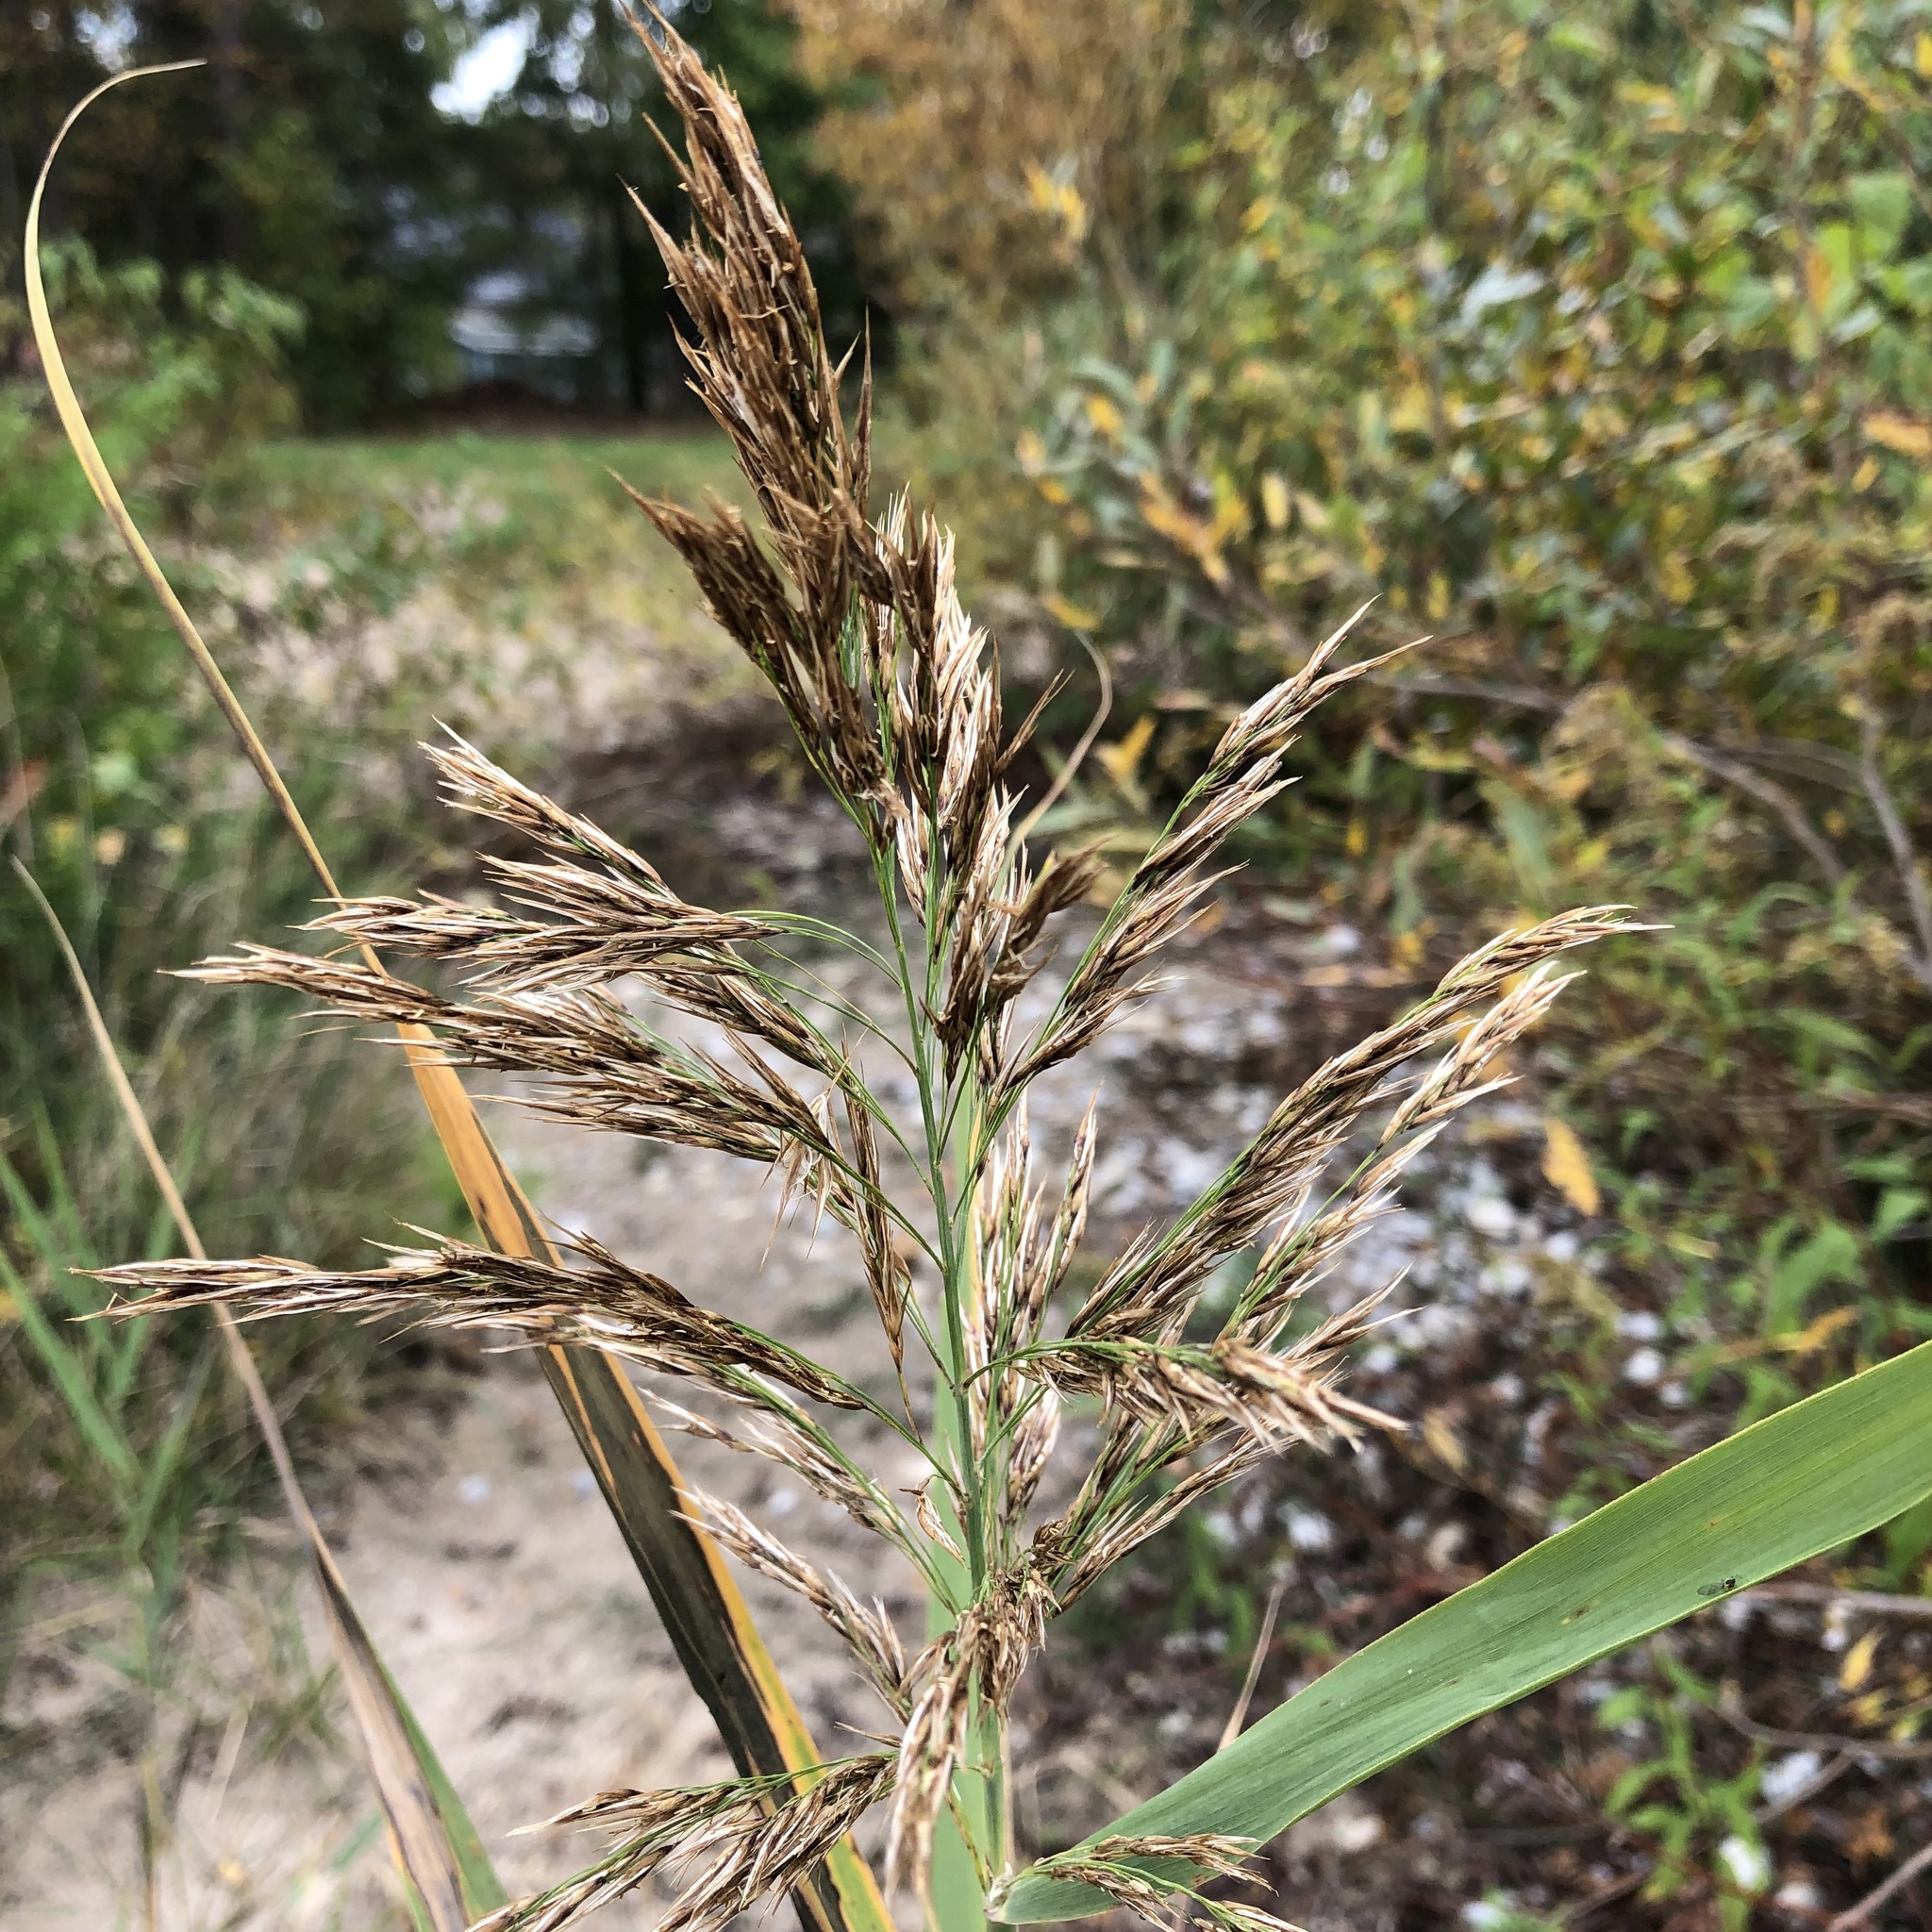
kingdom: Plantae
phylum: Tracheophyta
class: Liliopsida
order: Poales
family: Poaceae
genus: Phragmites
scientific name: Phragmites australis
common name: Common reed
